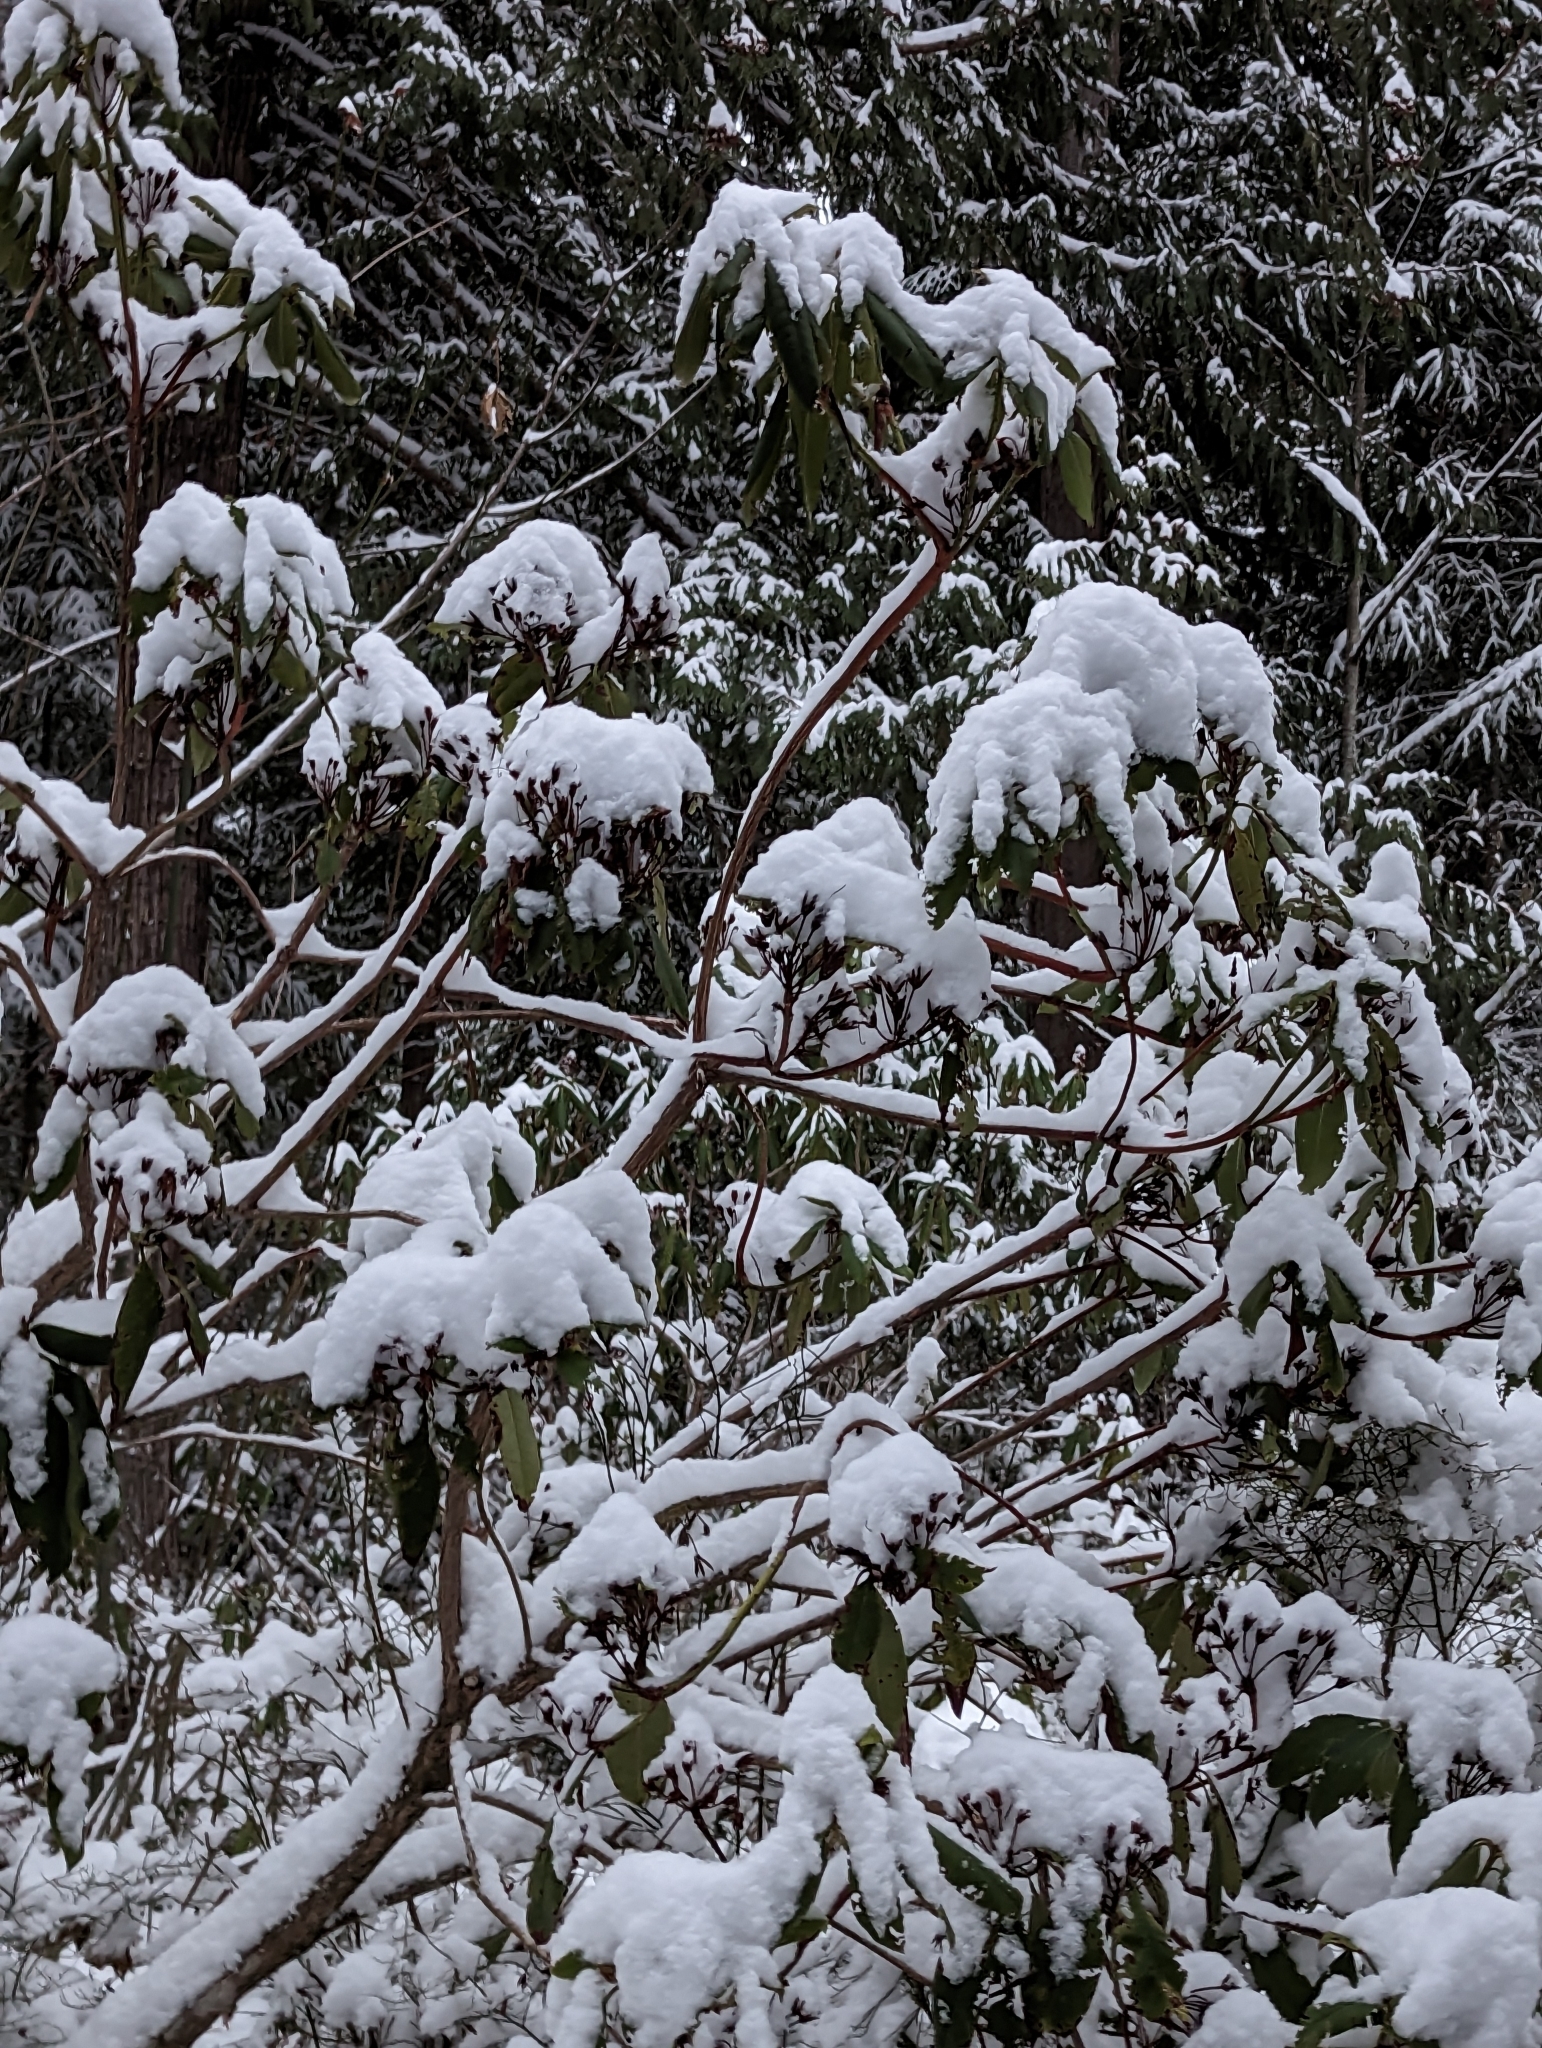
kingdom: Plantae
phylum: Tracheophyta
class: Magnoliopsida
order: Ericales
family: Ericaceae
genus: Rhododendron
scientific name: Rhododendron macrophyllum
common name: California rose bay
